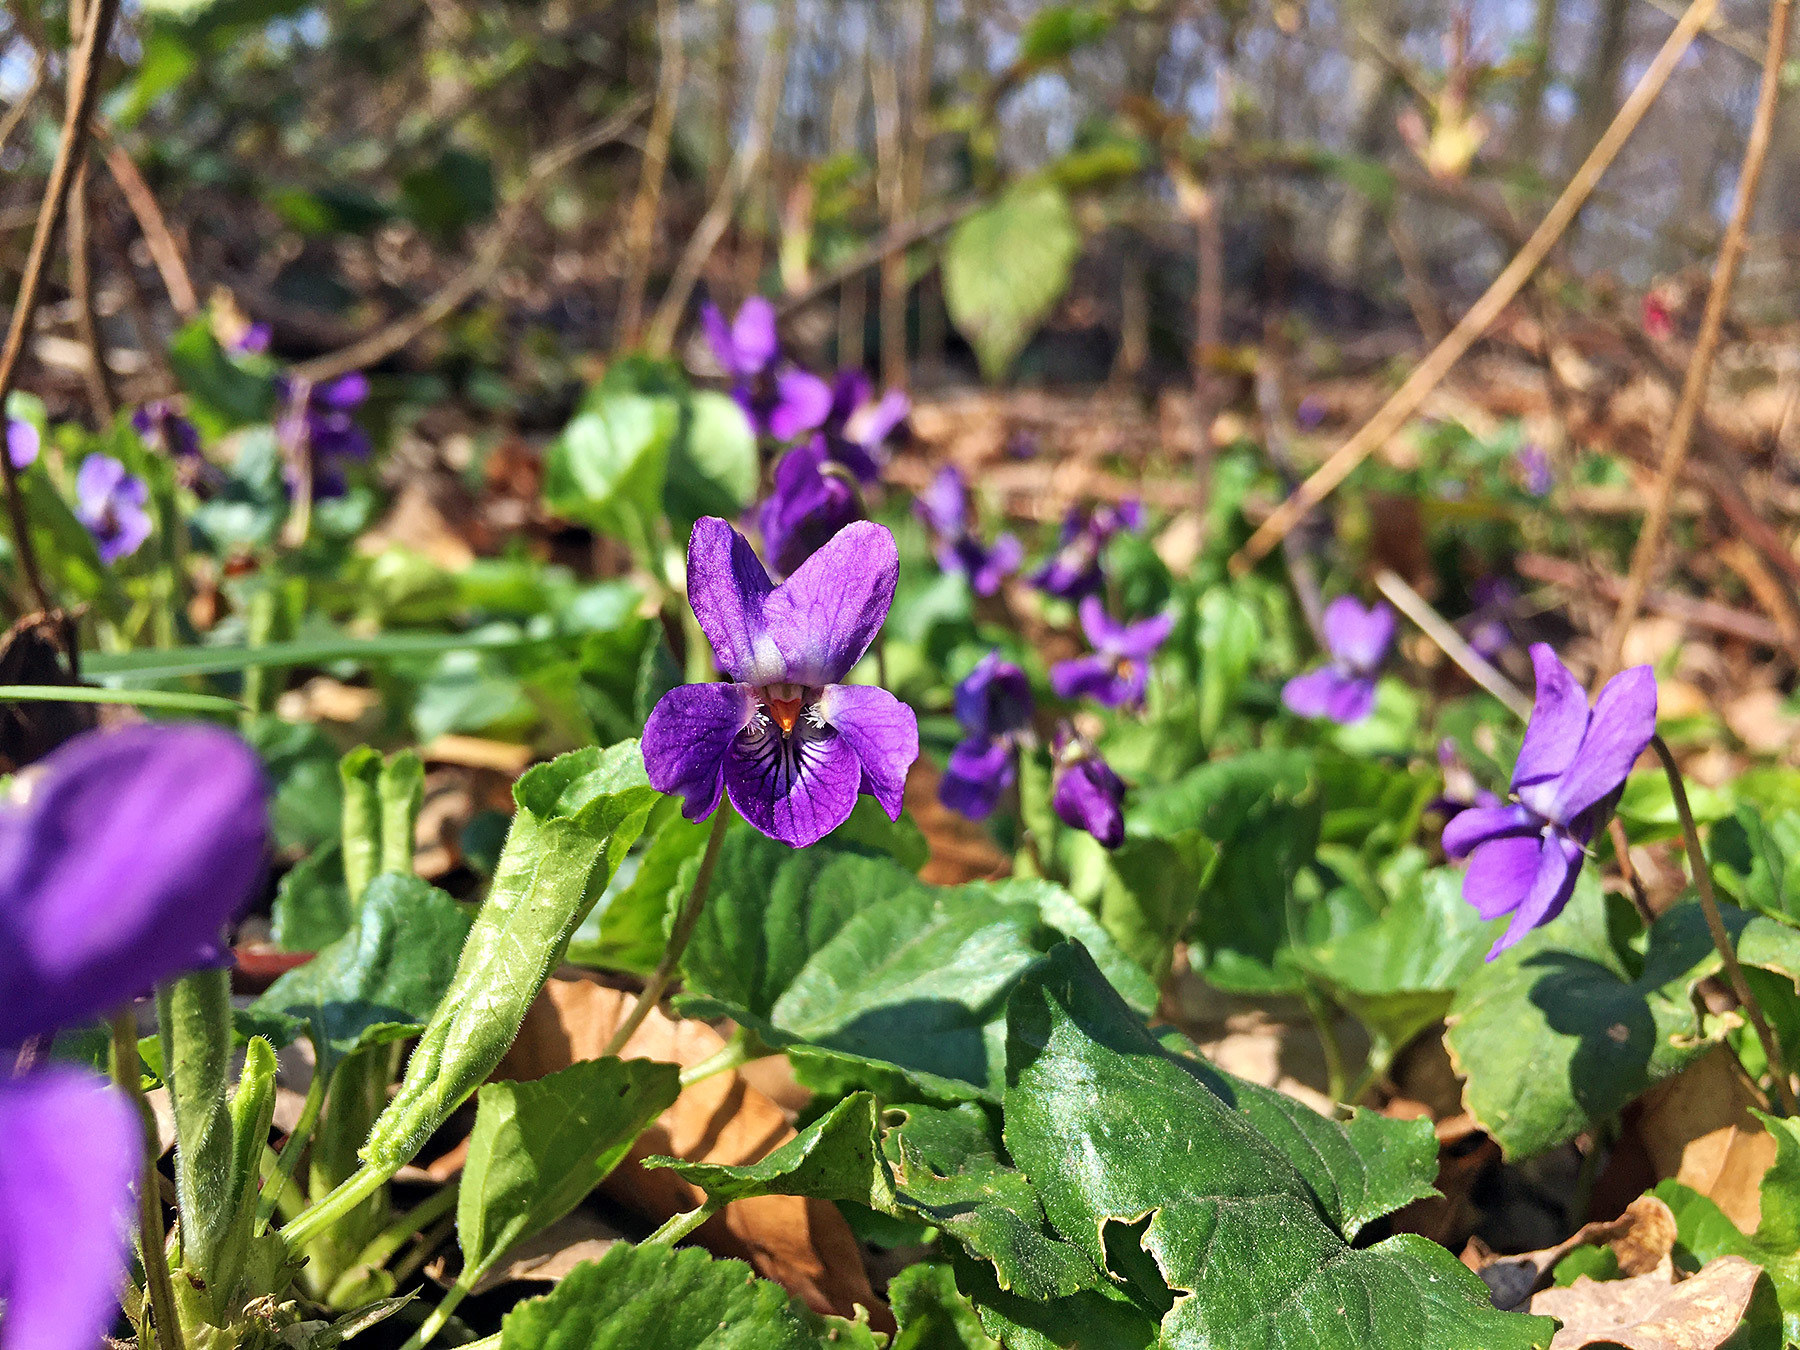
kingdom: Plantae
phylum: Tracheophyta
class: Magnoliopsida
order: Malpighiales
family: Violaceae
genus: Viola
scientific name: Viola odorata
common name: Sweet violet
